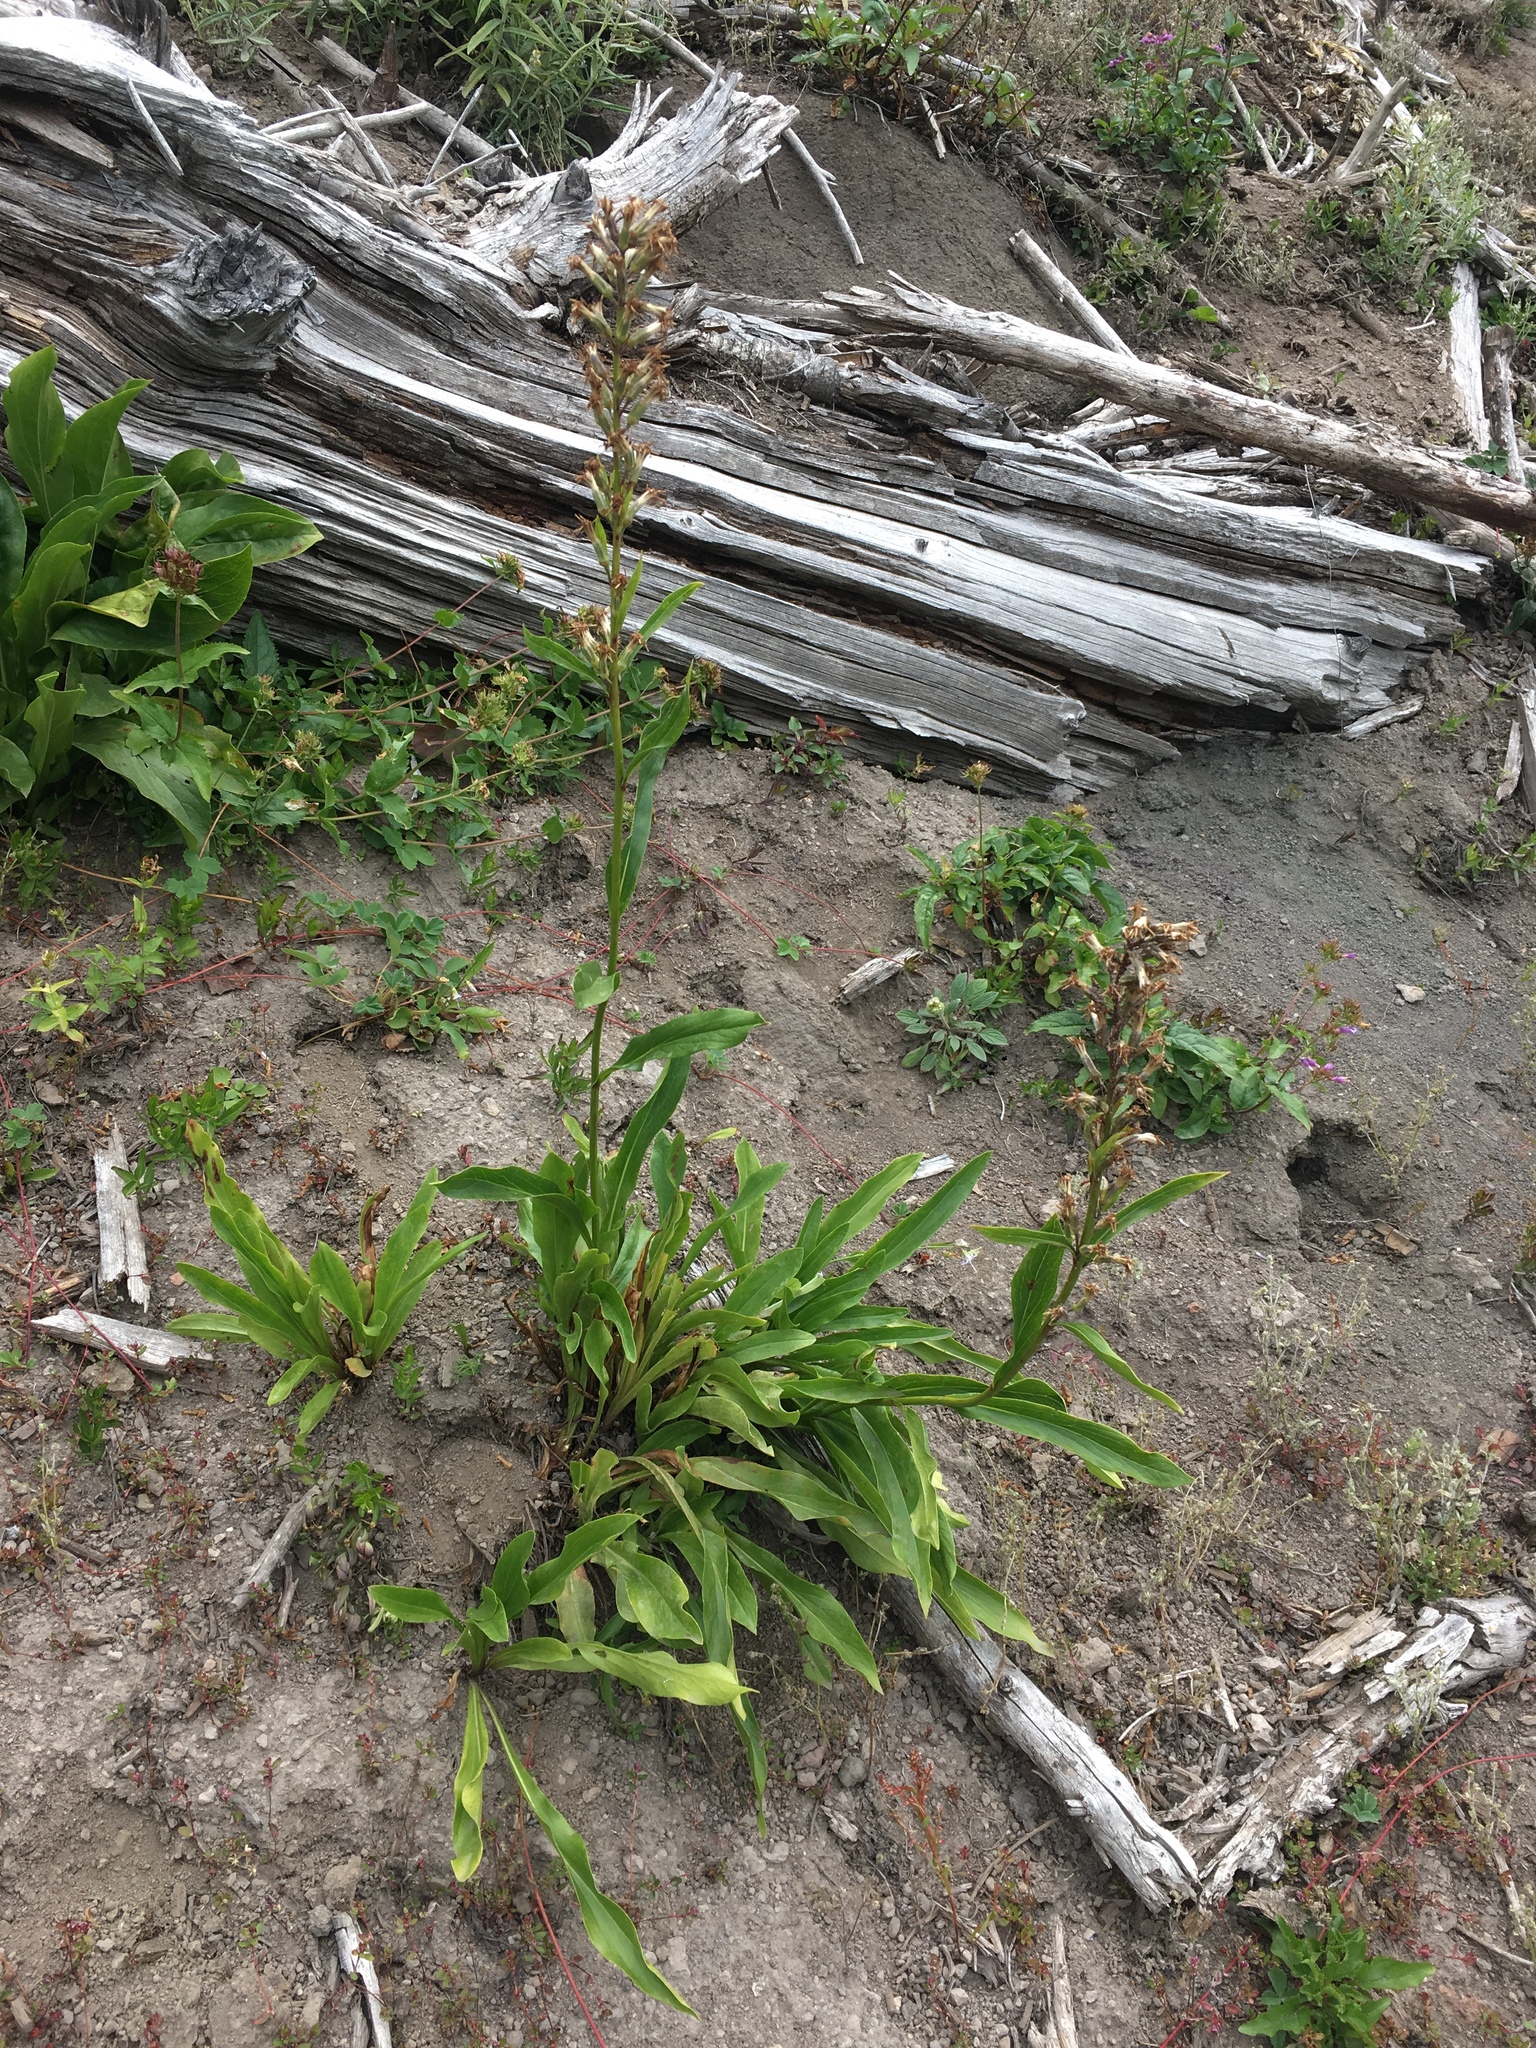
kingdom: Plantae
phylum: Tracheophyta
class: Magnoliopsida
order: Asterales
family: Asteraceae
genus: Rainiera
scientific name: Rainiera stricta
